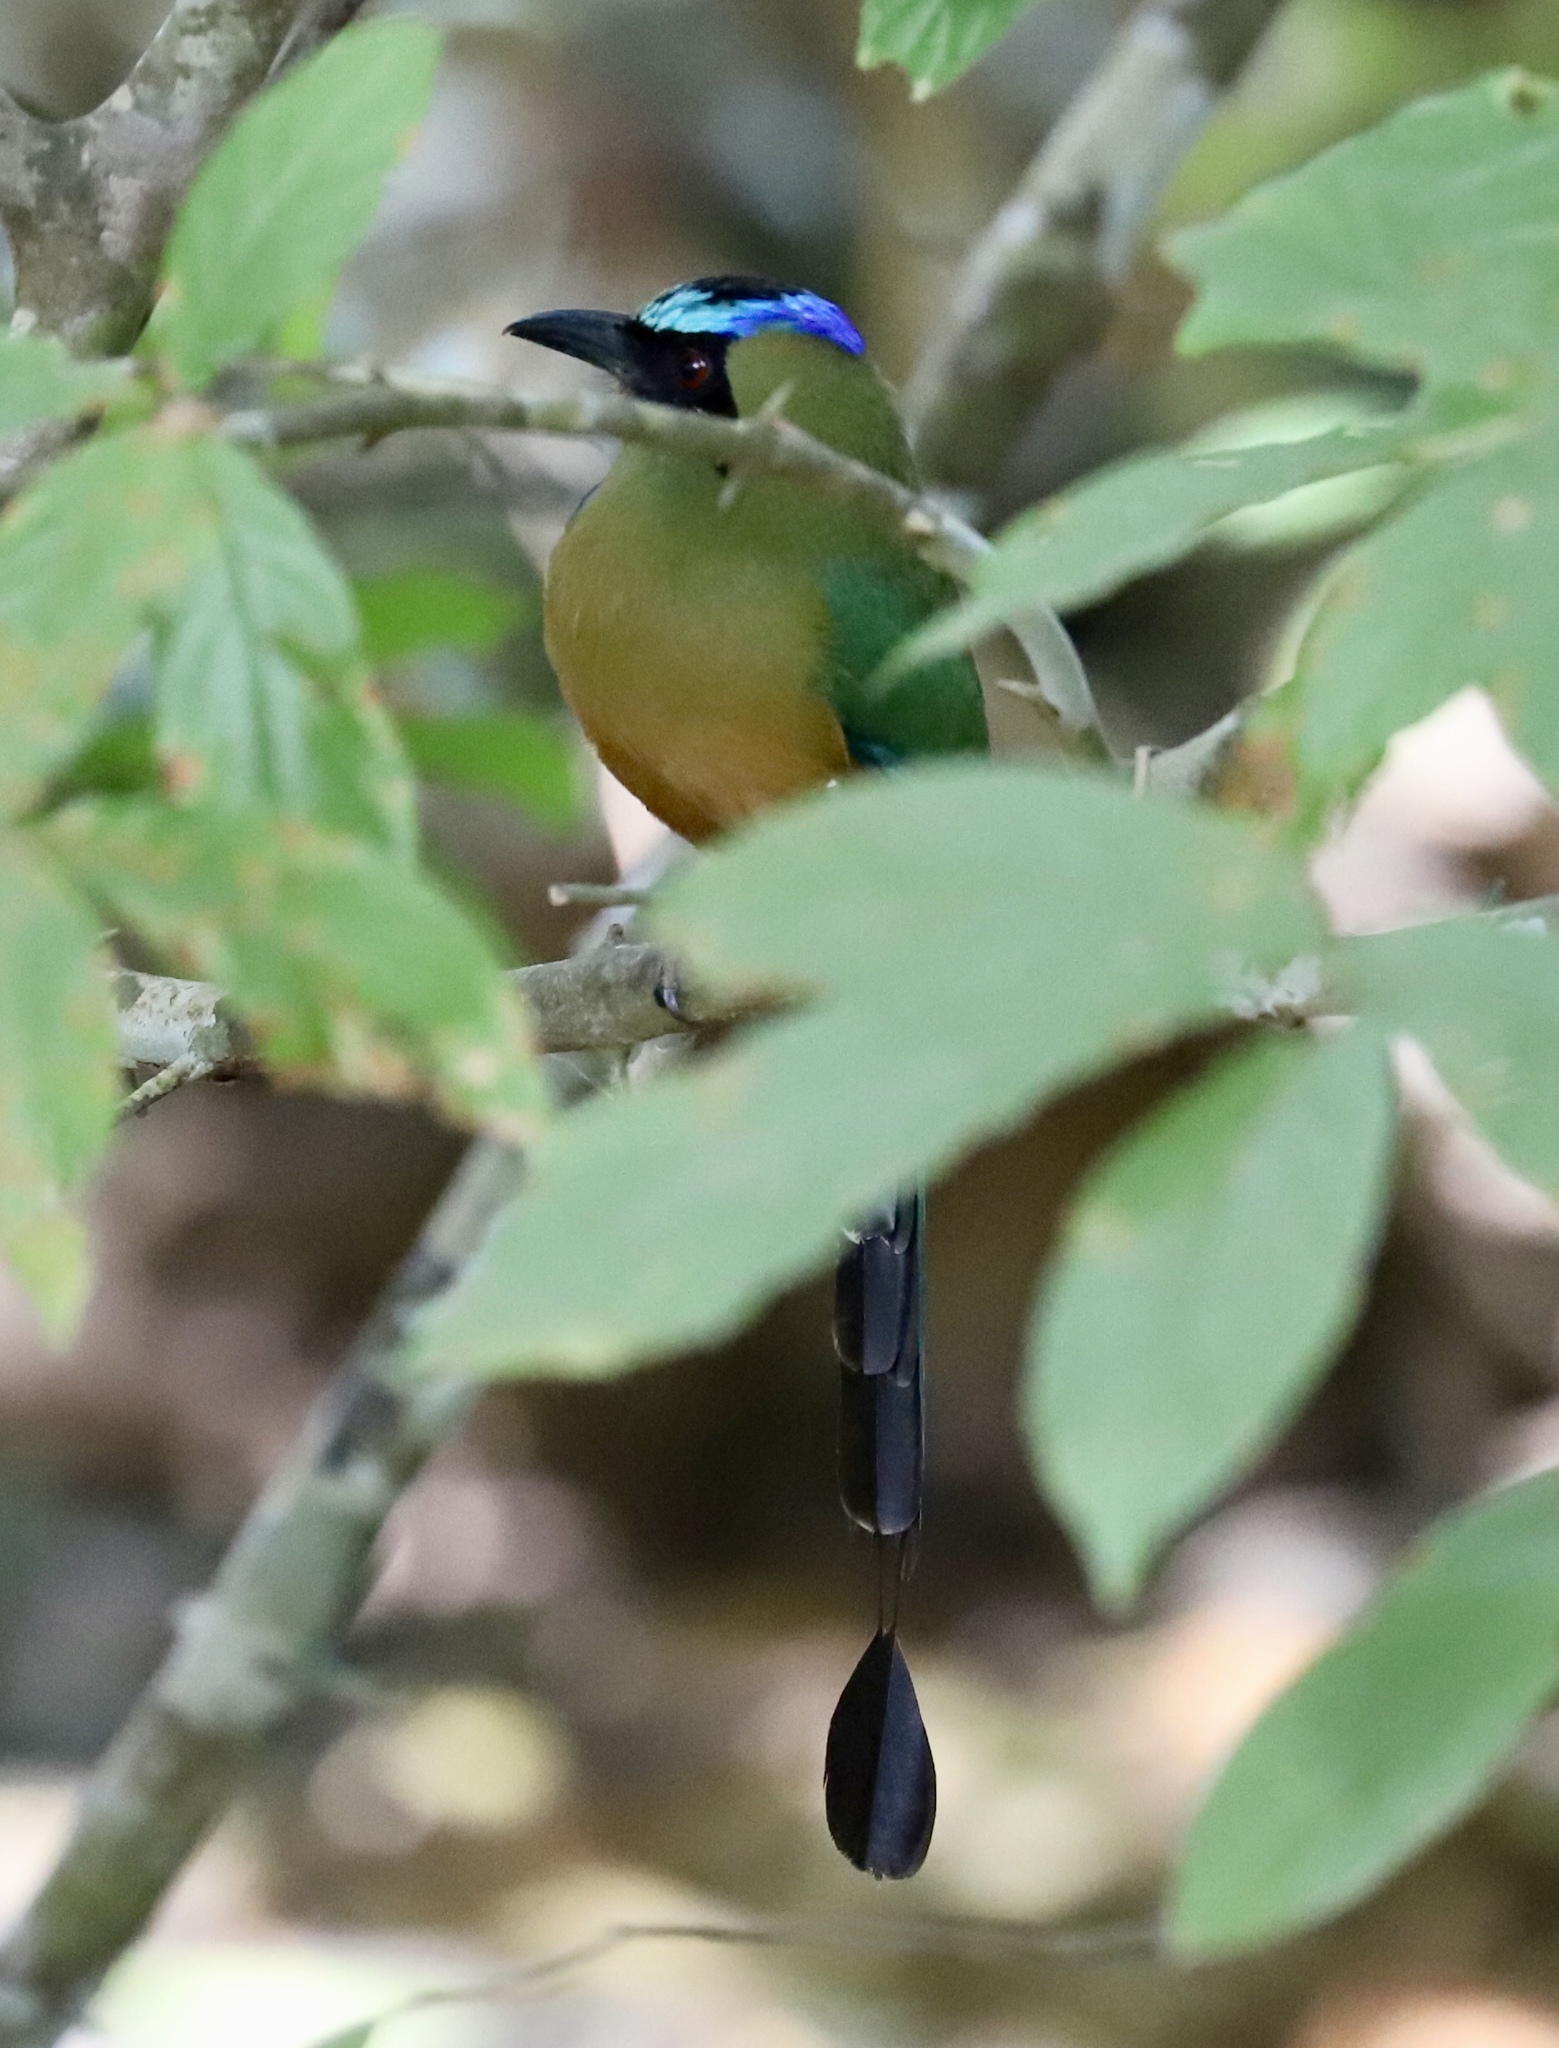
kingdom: Animalia
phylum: Chordata
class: Aves
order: Coraciiformes
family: Momotidae
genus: Momotus
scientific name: Momotus subrufescens
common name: Whooping motmot
